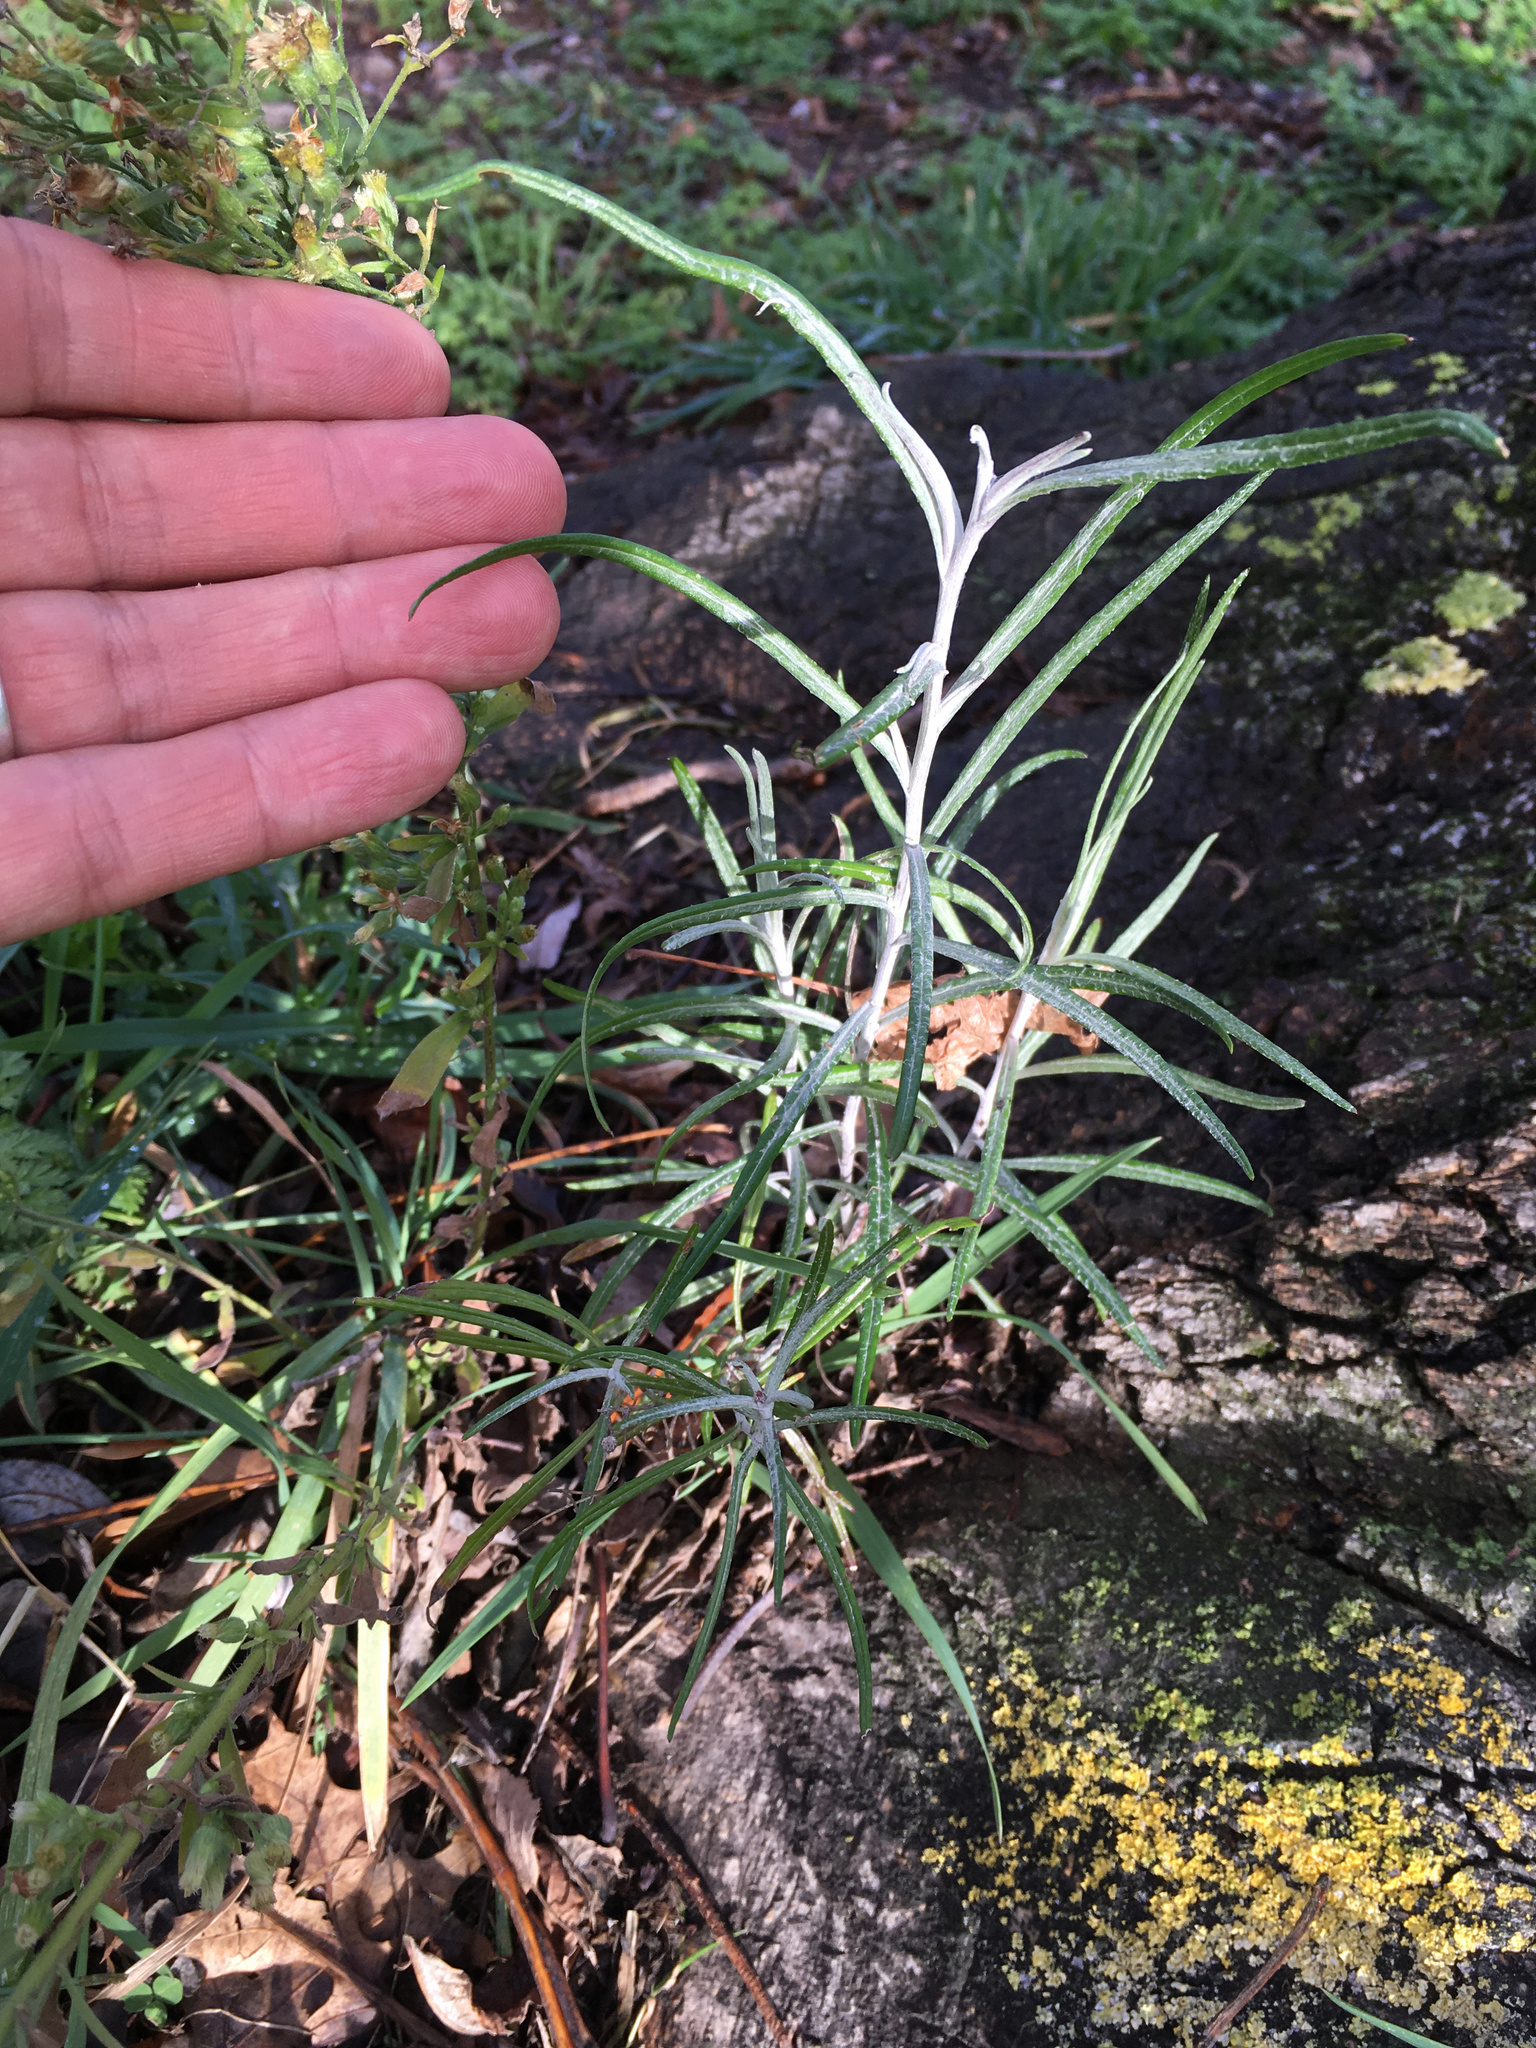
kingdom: Plantae
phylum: Tracheophyta
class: Magnoliopsida
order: Asterales
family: Asteraceae
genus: Senecio
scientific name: Senecio quadridentatus
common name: Cotton fireweed
